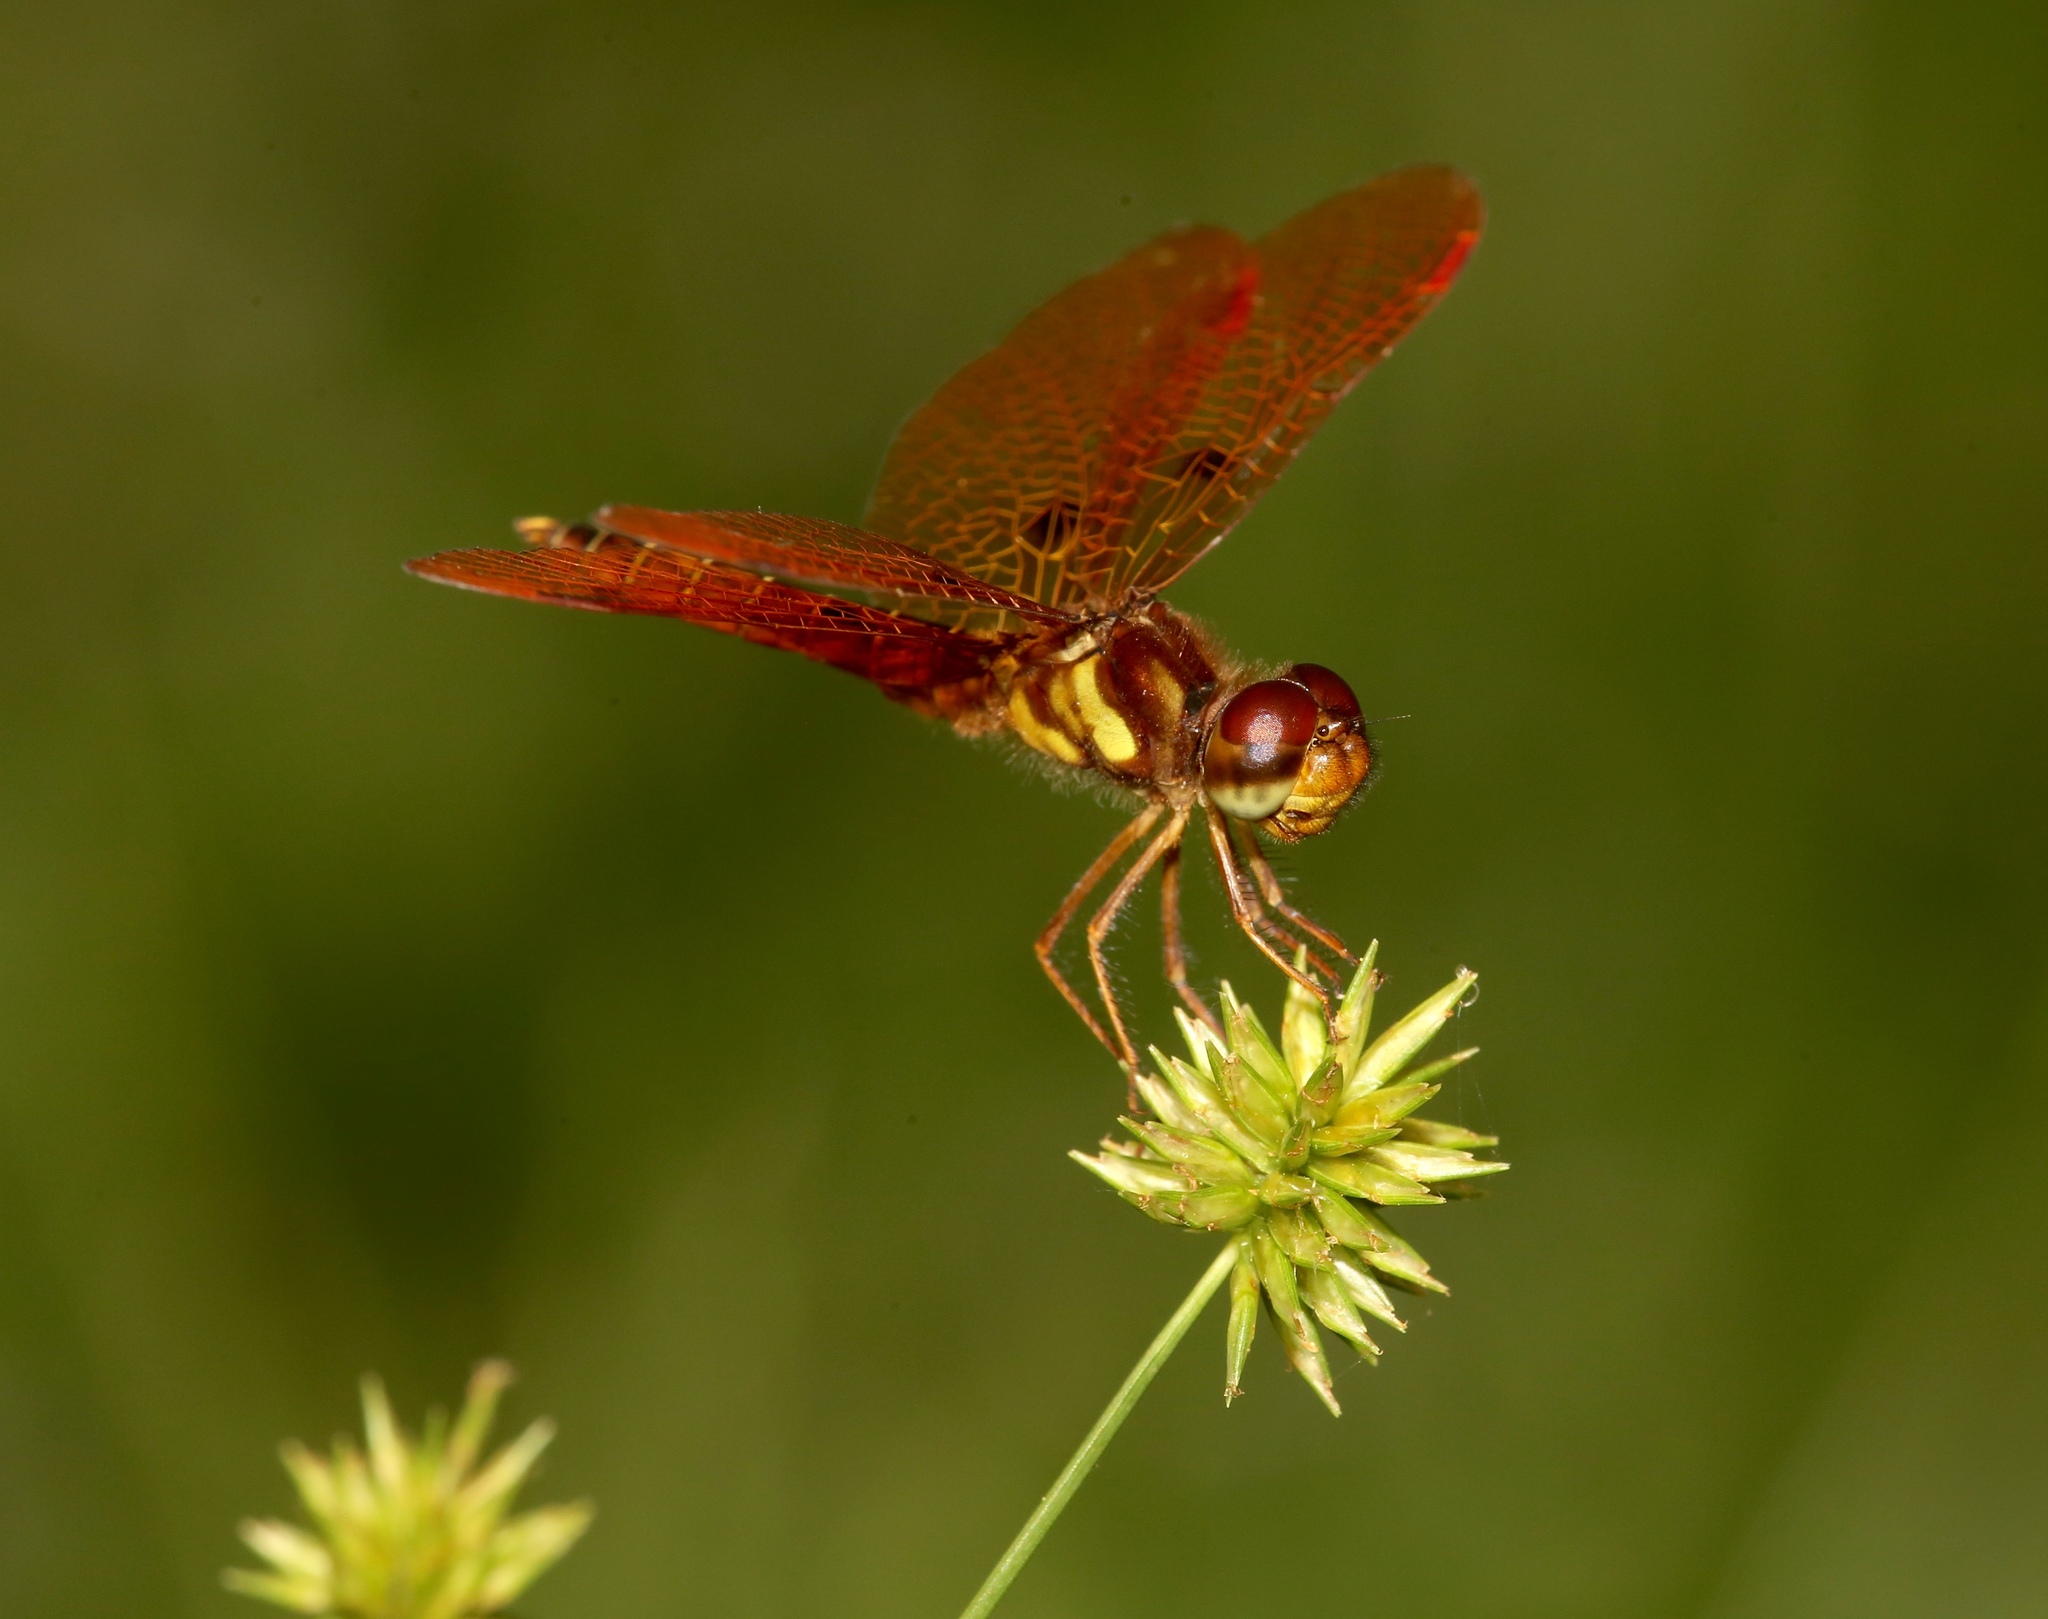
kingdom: Animalia
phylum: Arthropoda
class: Insecta
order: Odonata
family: Libellulidae
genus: Perithemis
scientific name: Perithemis tenera
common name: Eastern amberwing
